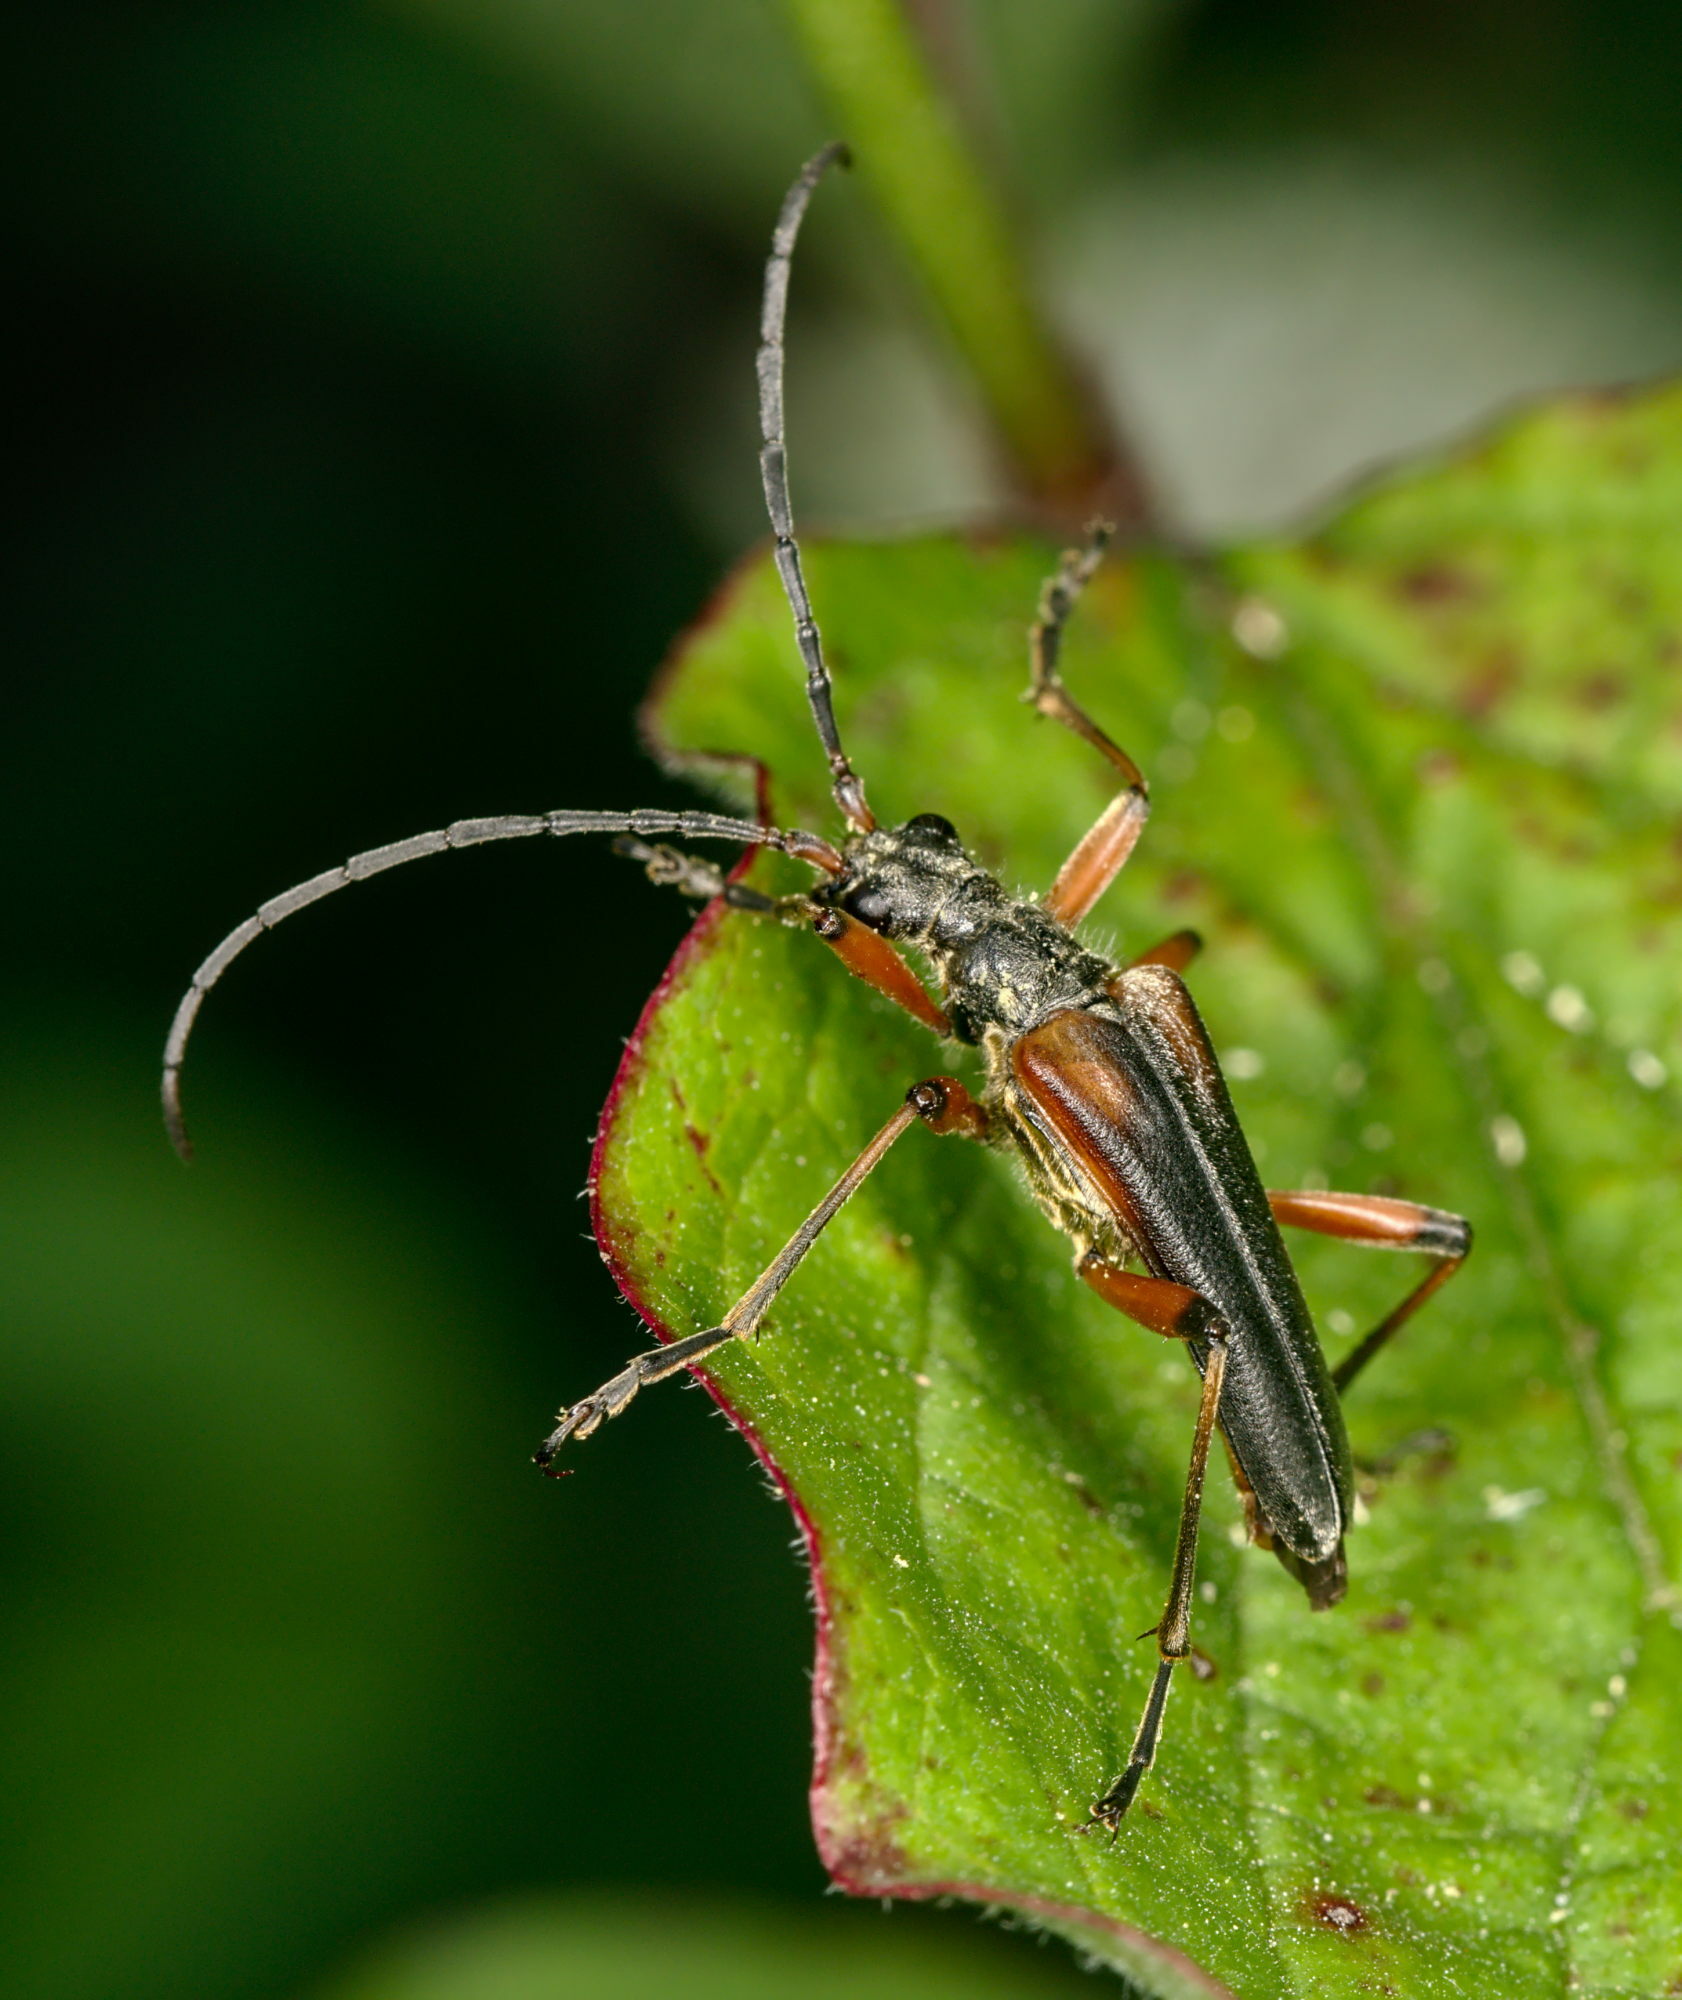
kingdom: Animalia
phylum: Arthropoda
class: Insecta
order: Coleoptera
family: Cerambycidae
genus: Stenopterus
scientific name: Stenopterus rufus
